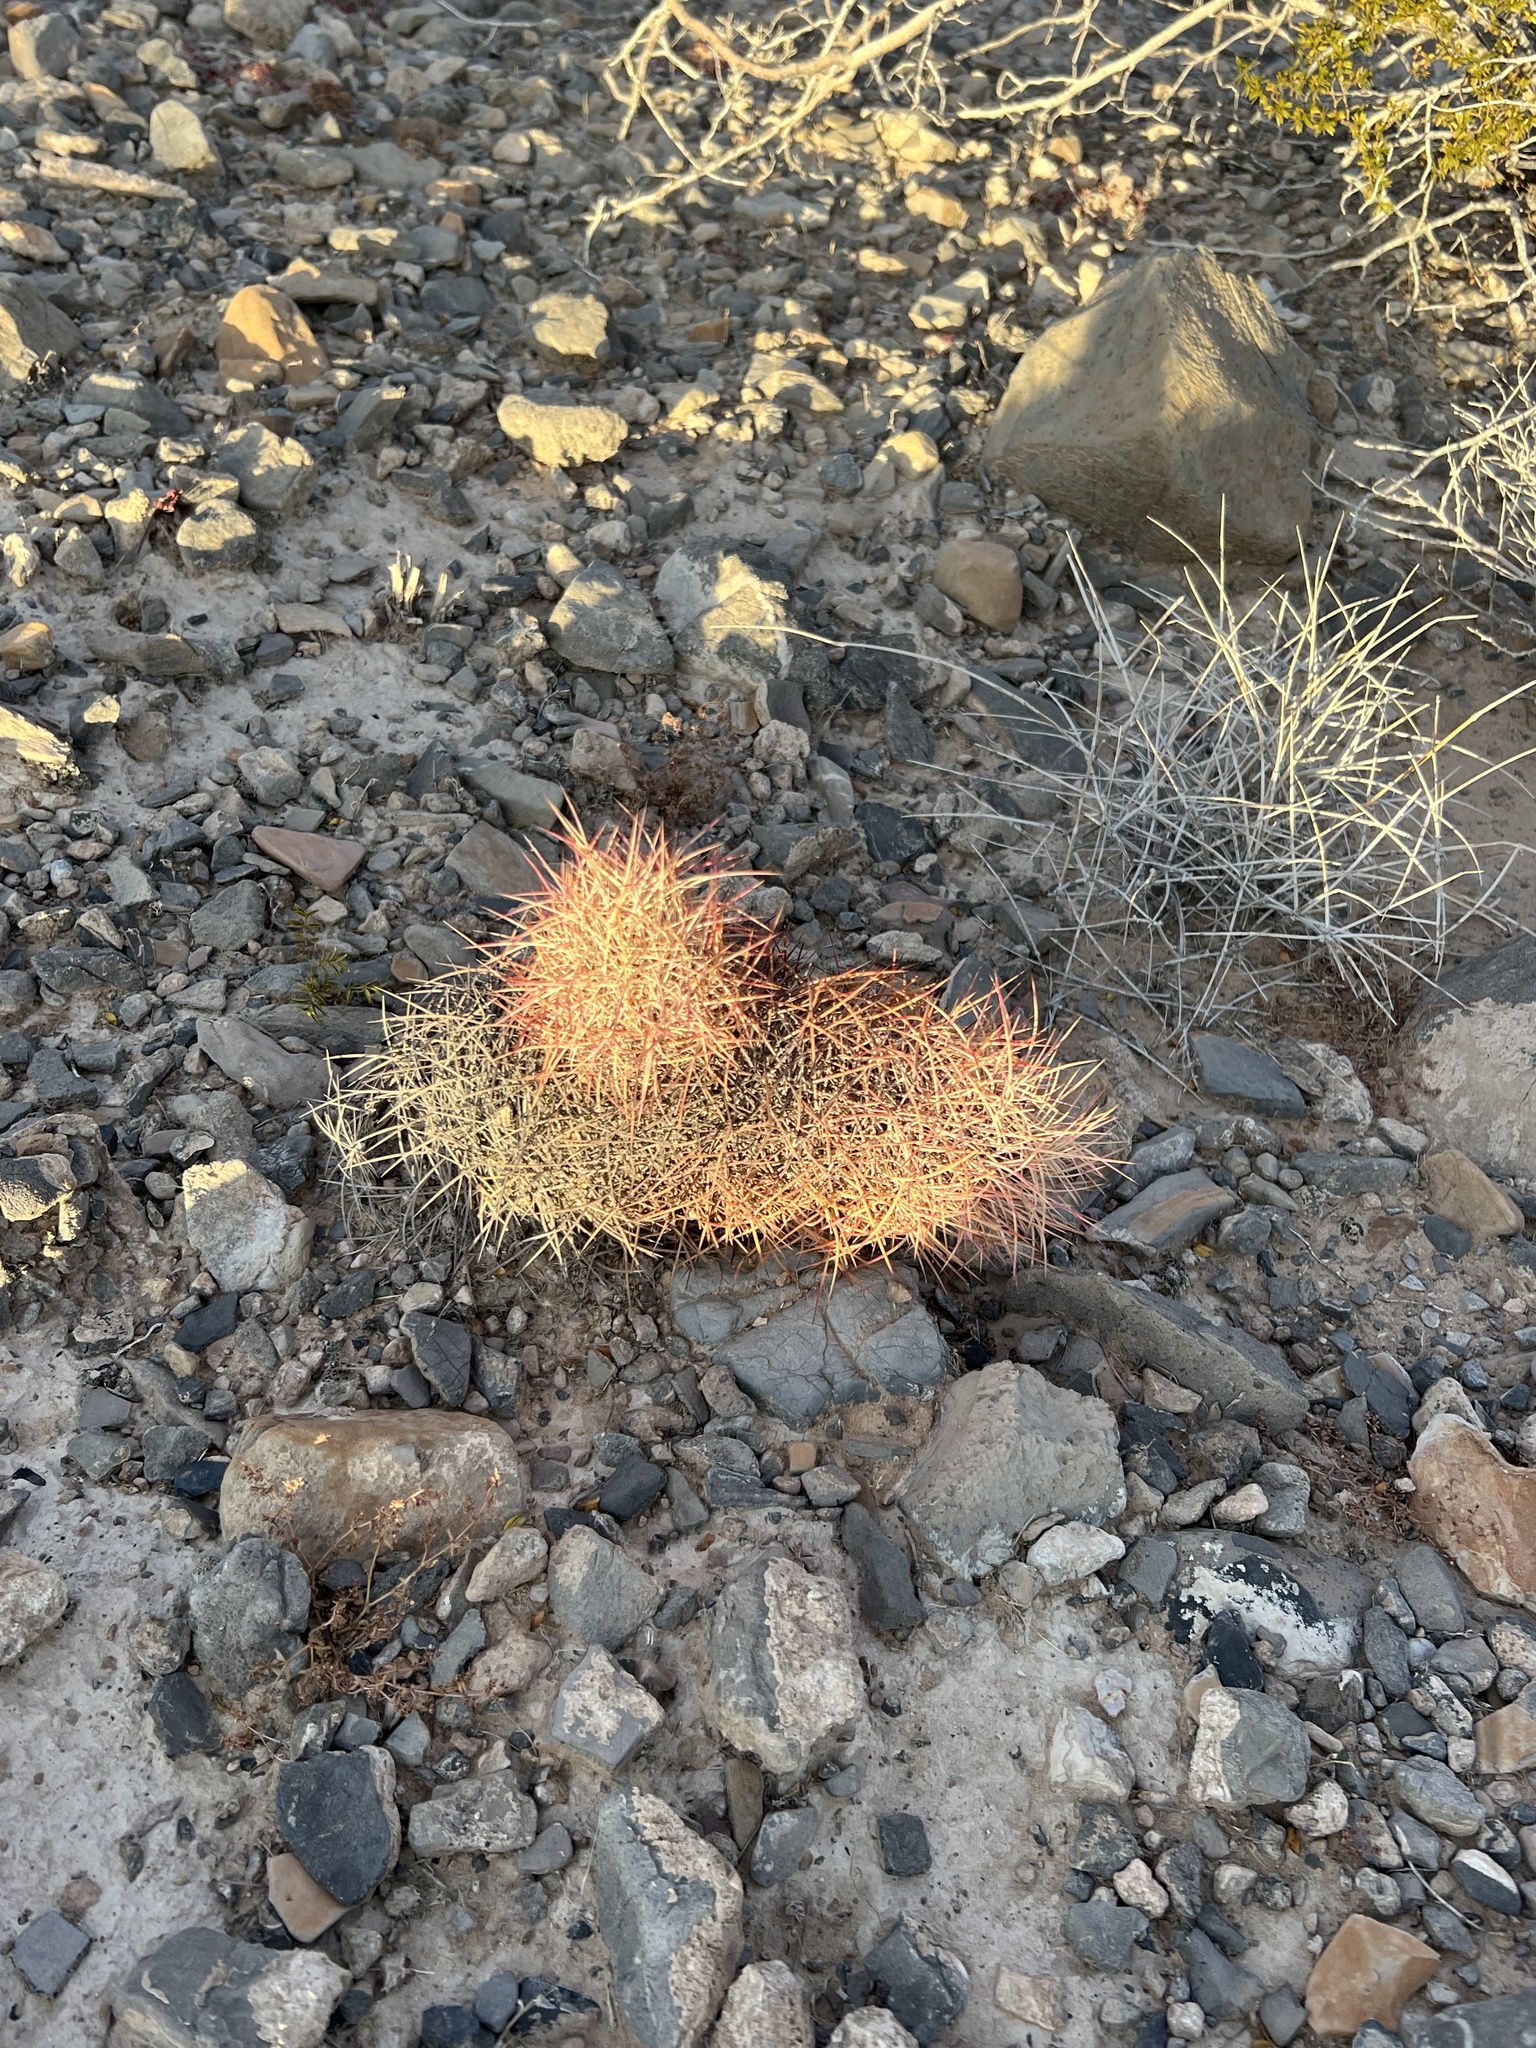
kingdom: Plantae
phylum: Tracheophyta
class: Magnoliopsida
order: Caryophyllales
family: Cactaceae
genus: Sclerocactus
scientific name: Sclerocactus johnsonii
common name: Eight-spine fishhook cactus
